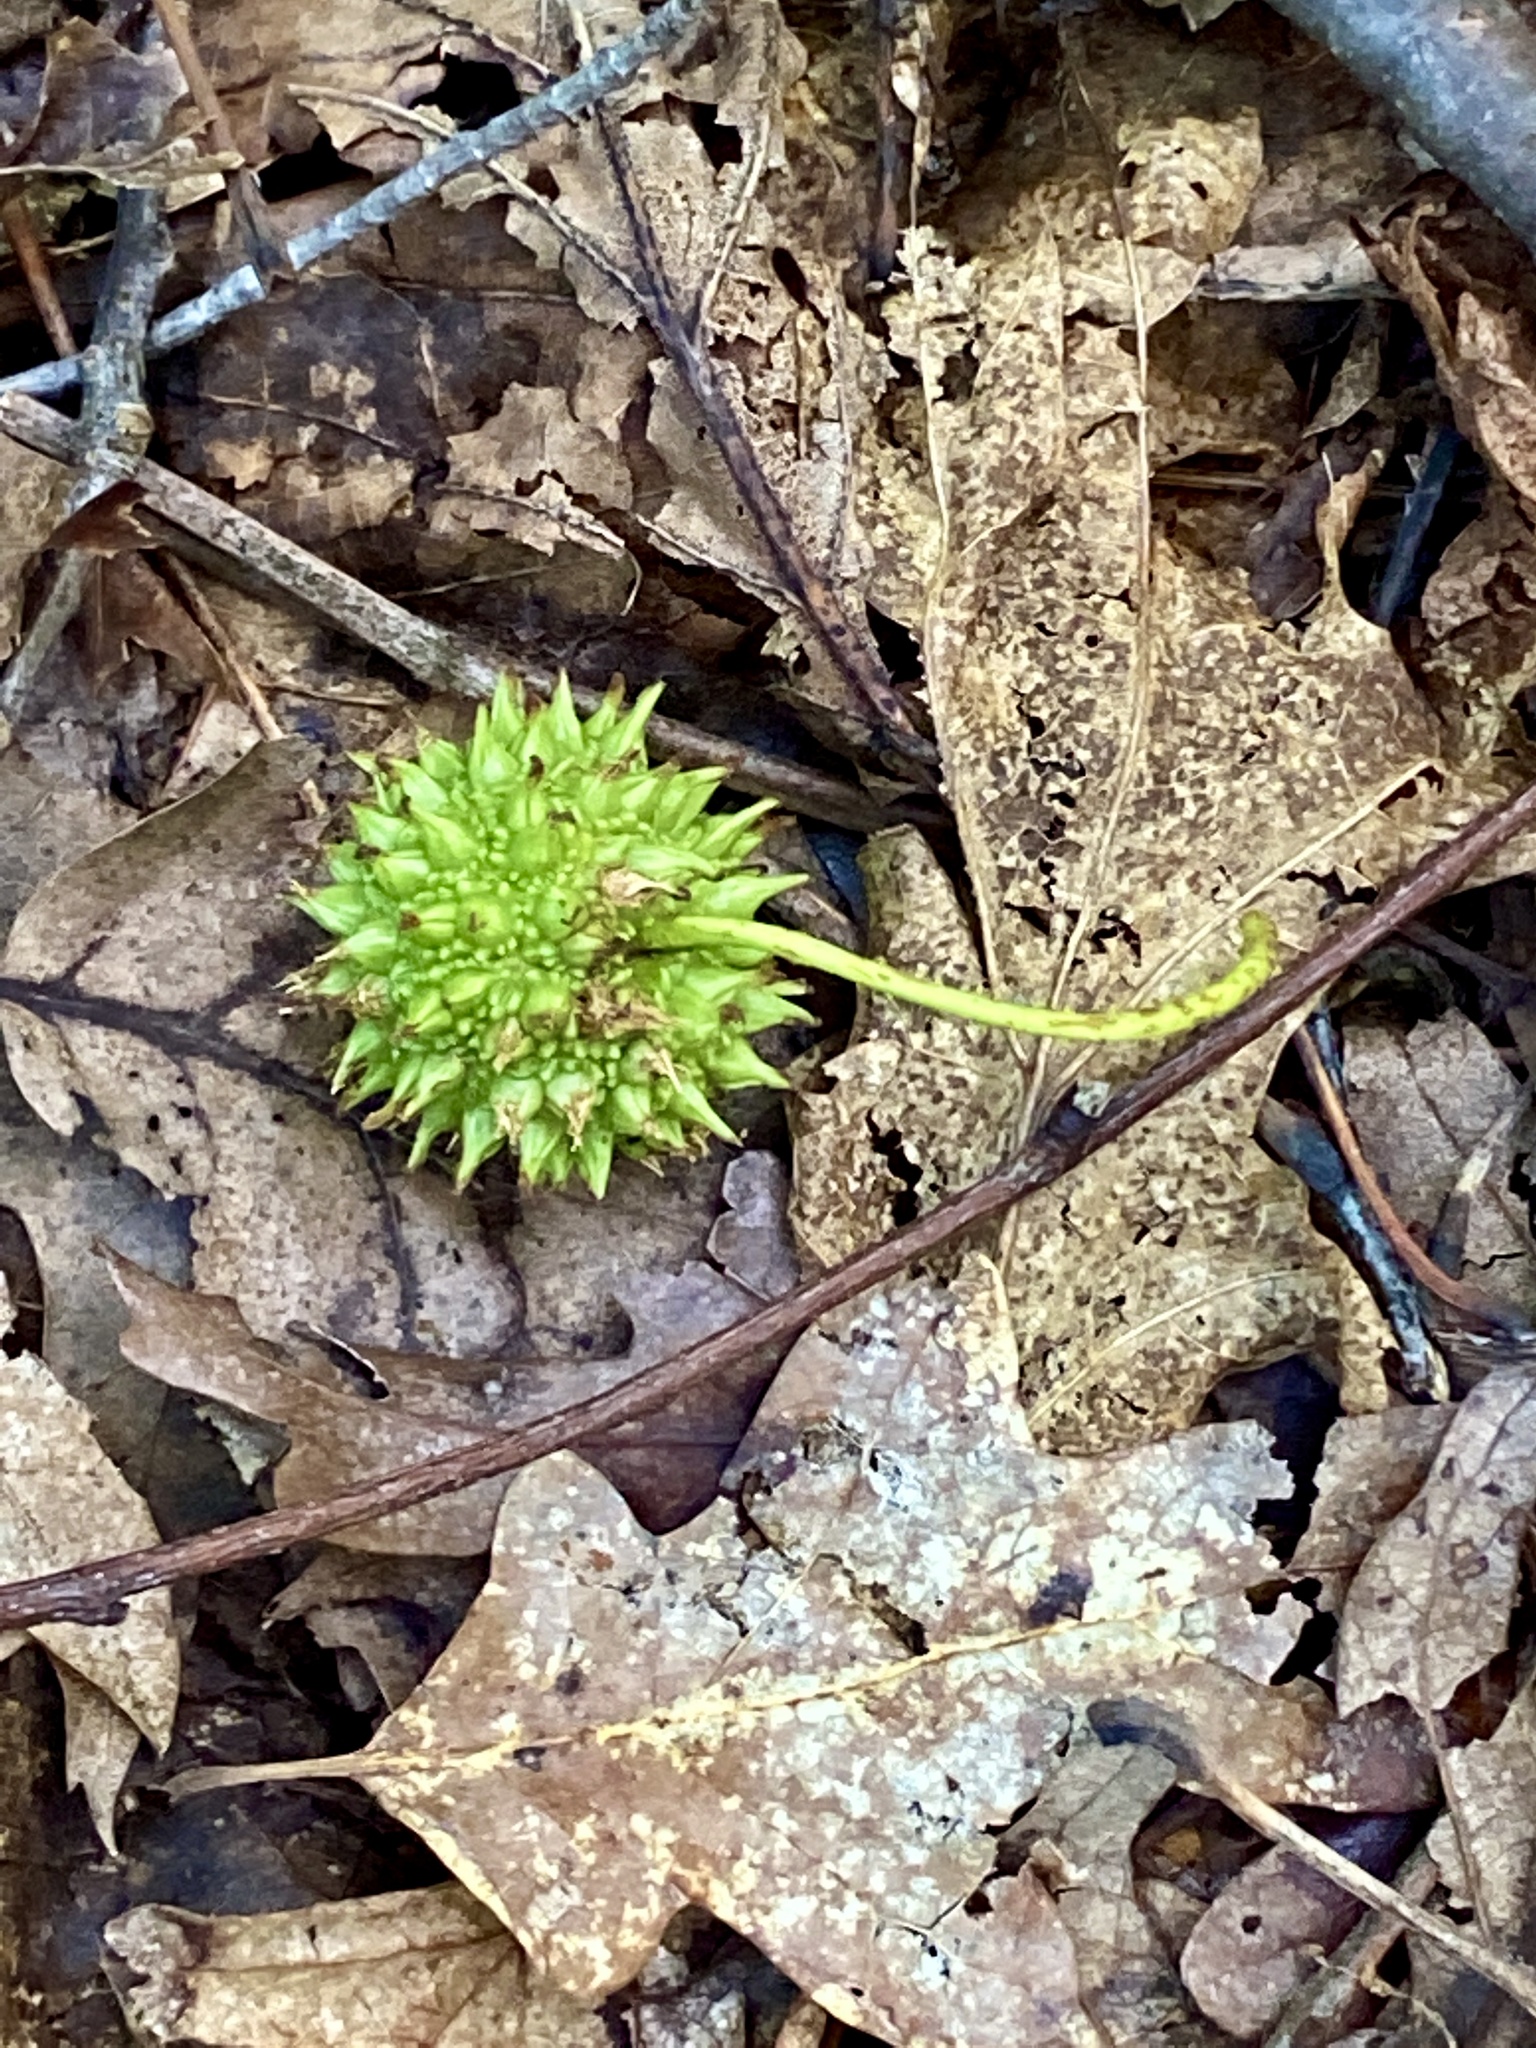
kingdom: Plantae
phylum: Tracheophyta
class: Magnoliopsida
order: Saxifragales
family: Altingiaceae
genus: Liquidambar
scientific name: Liquidambar styraciflua
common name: Sweet gum
